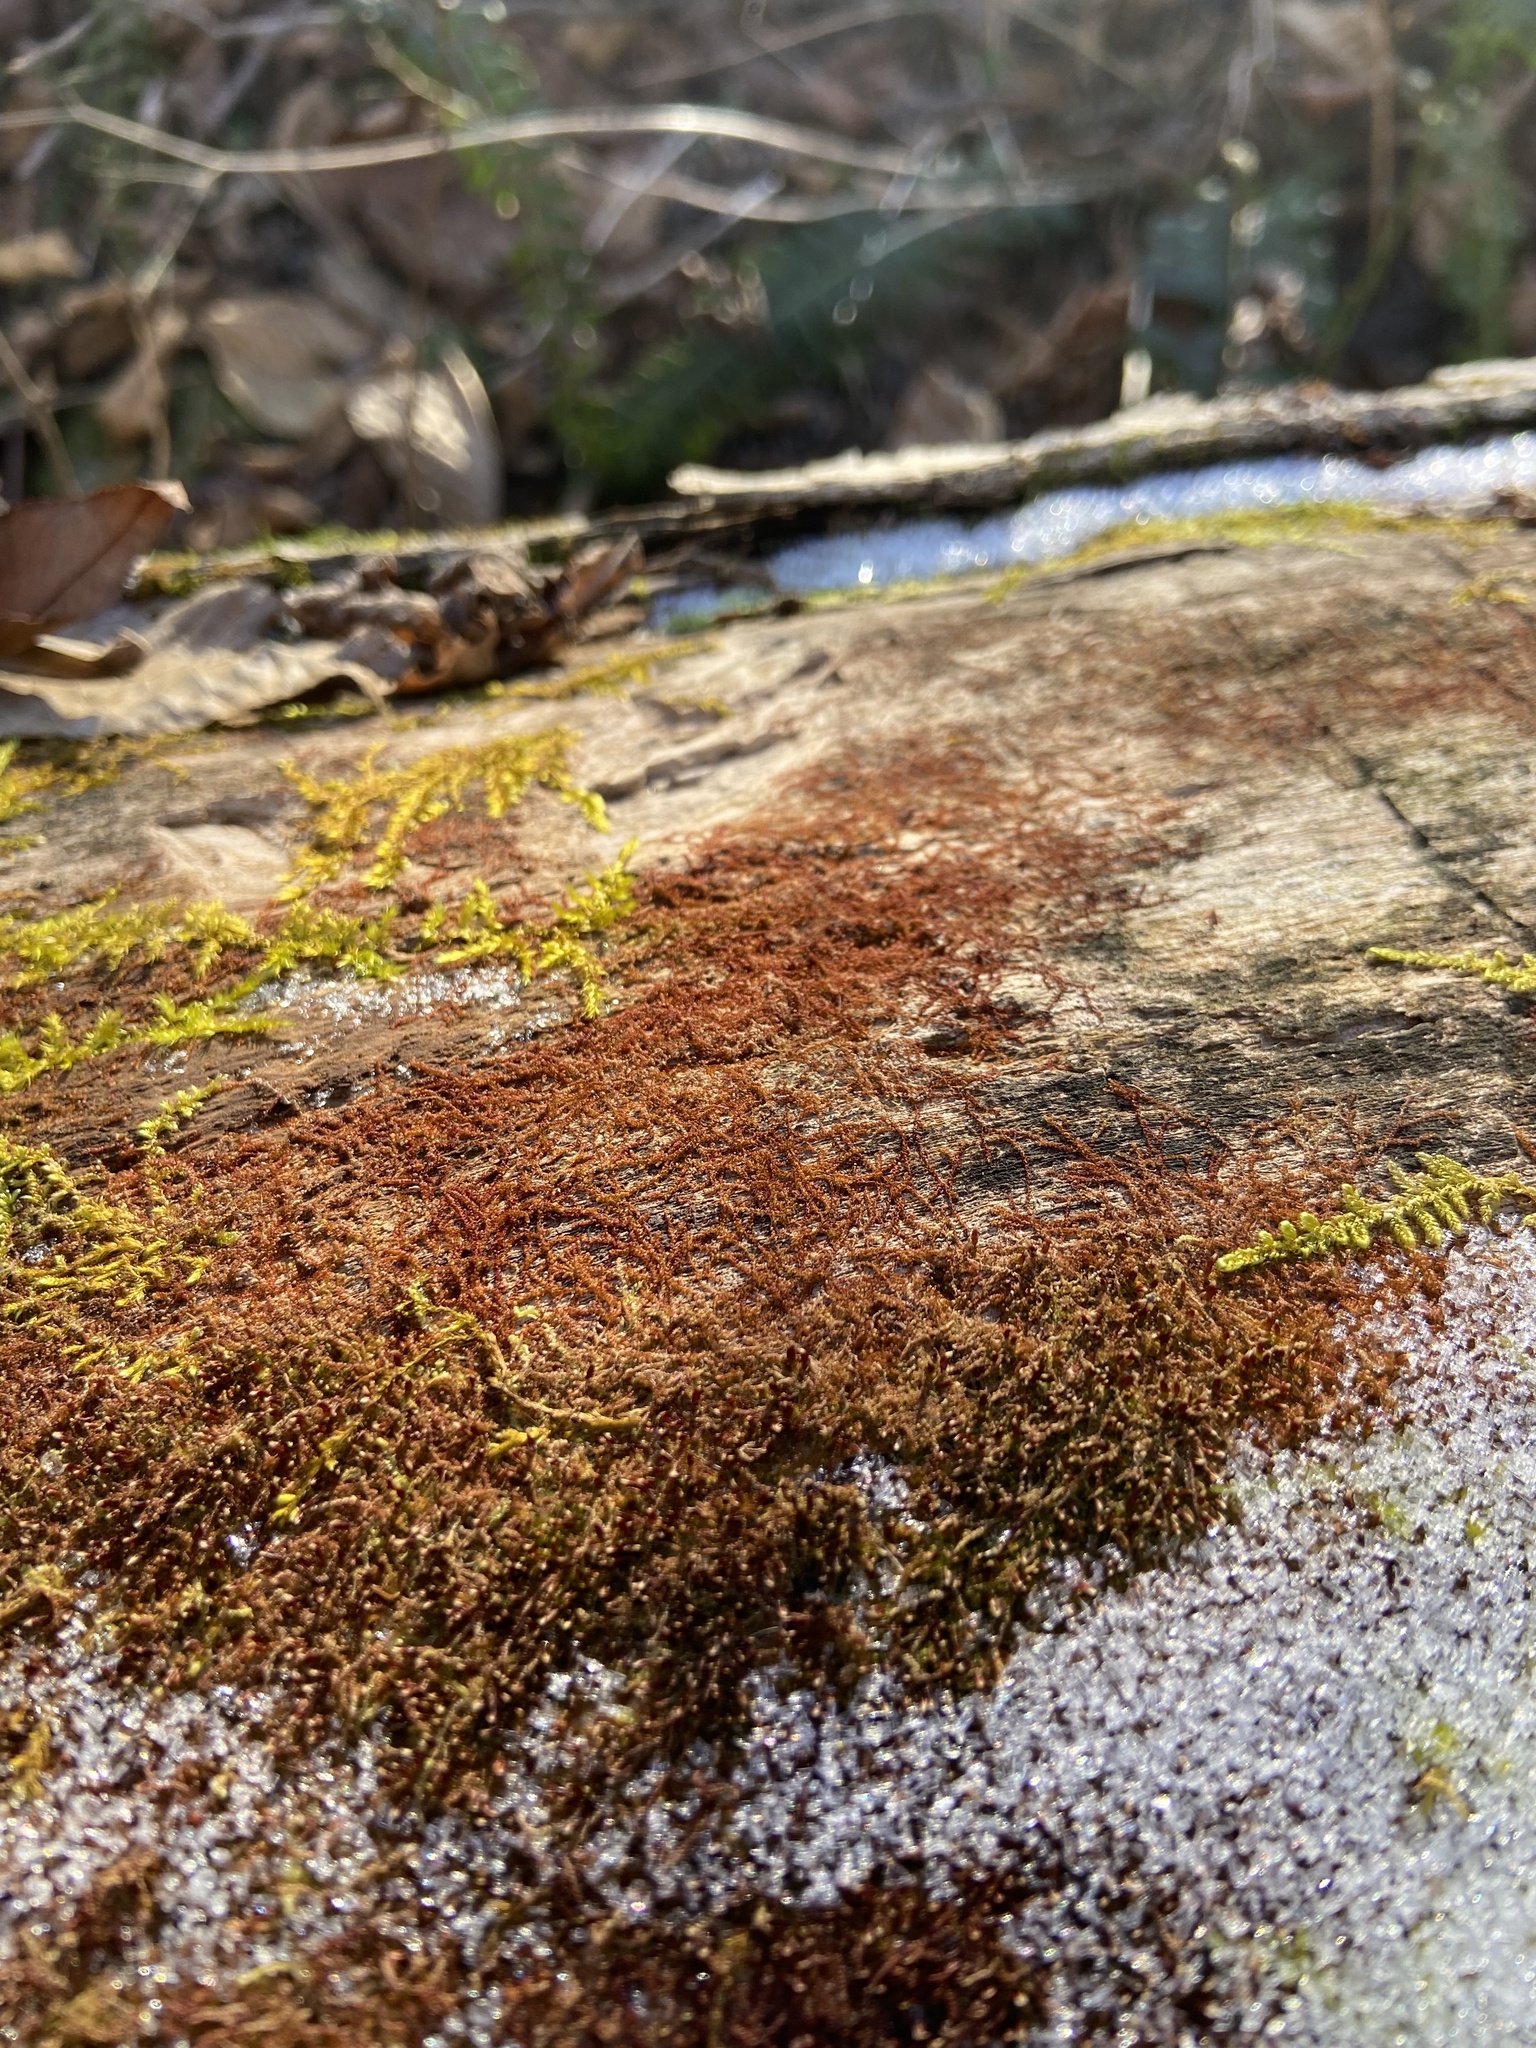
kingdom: Plantae
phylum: Marchantiophyta
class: Jungermanniopsida
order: Jungermanniales
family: Cephaloziaceae
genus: Nowellia
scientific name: Nowellia curvifolia
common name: Wood rustwort
